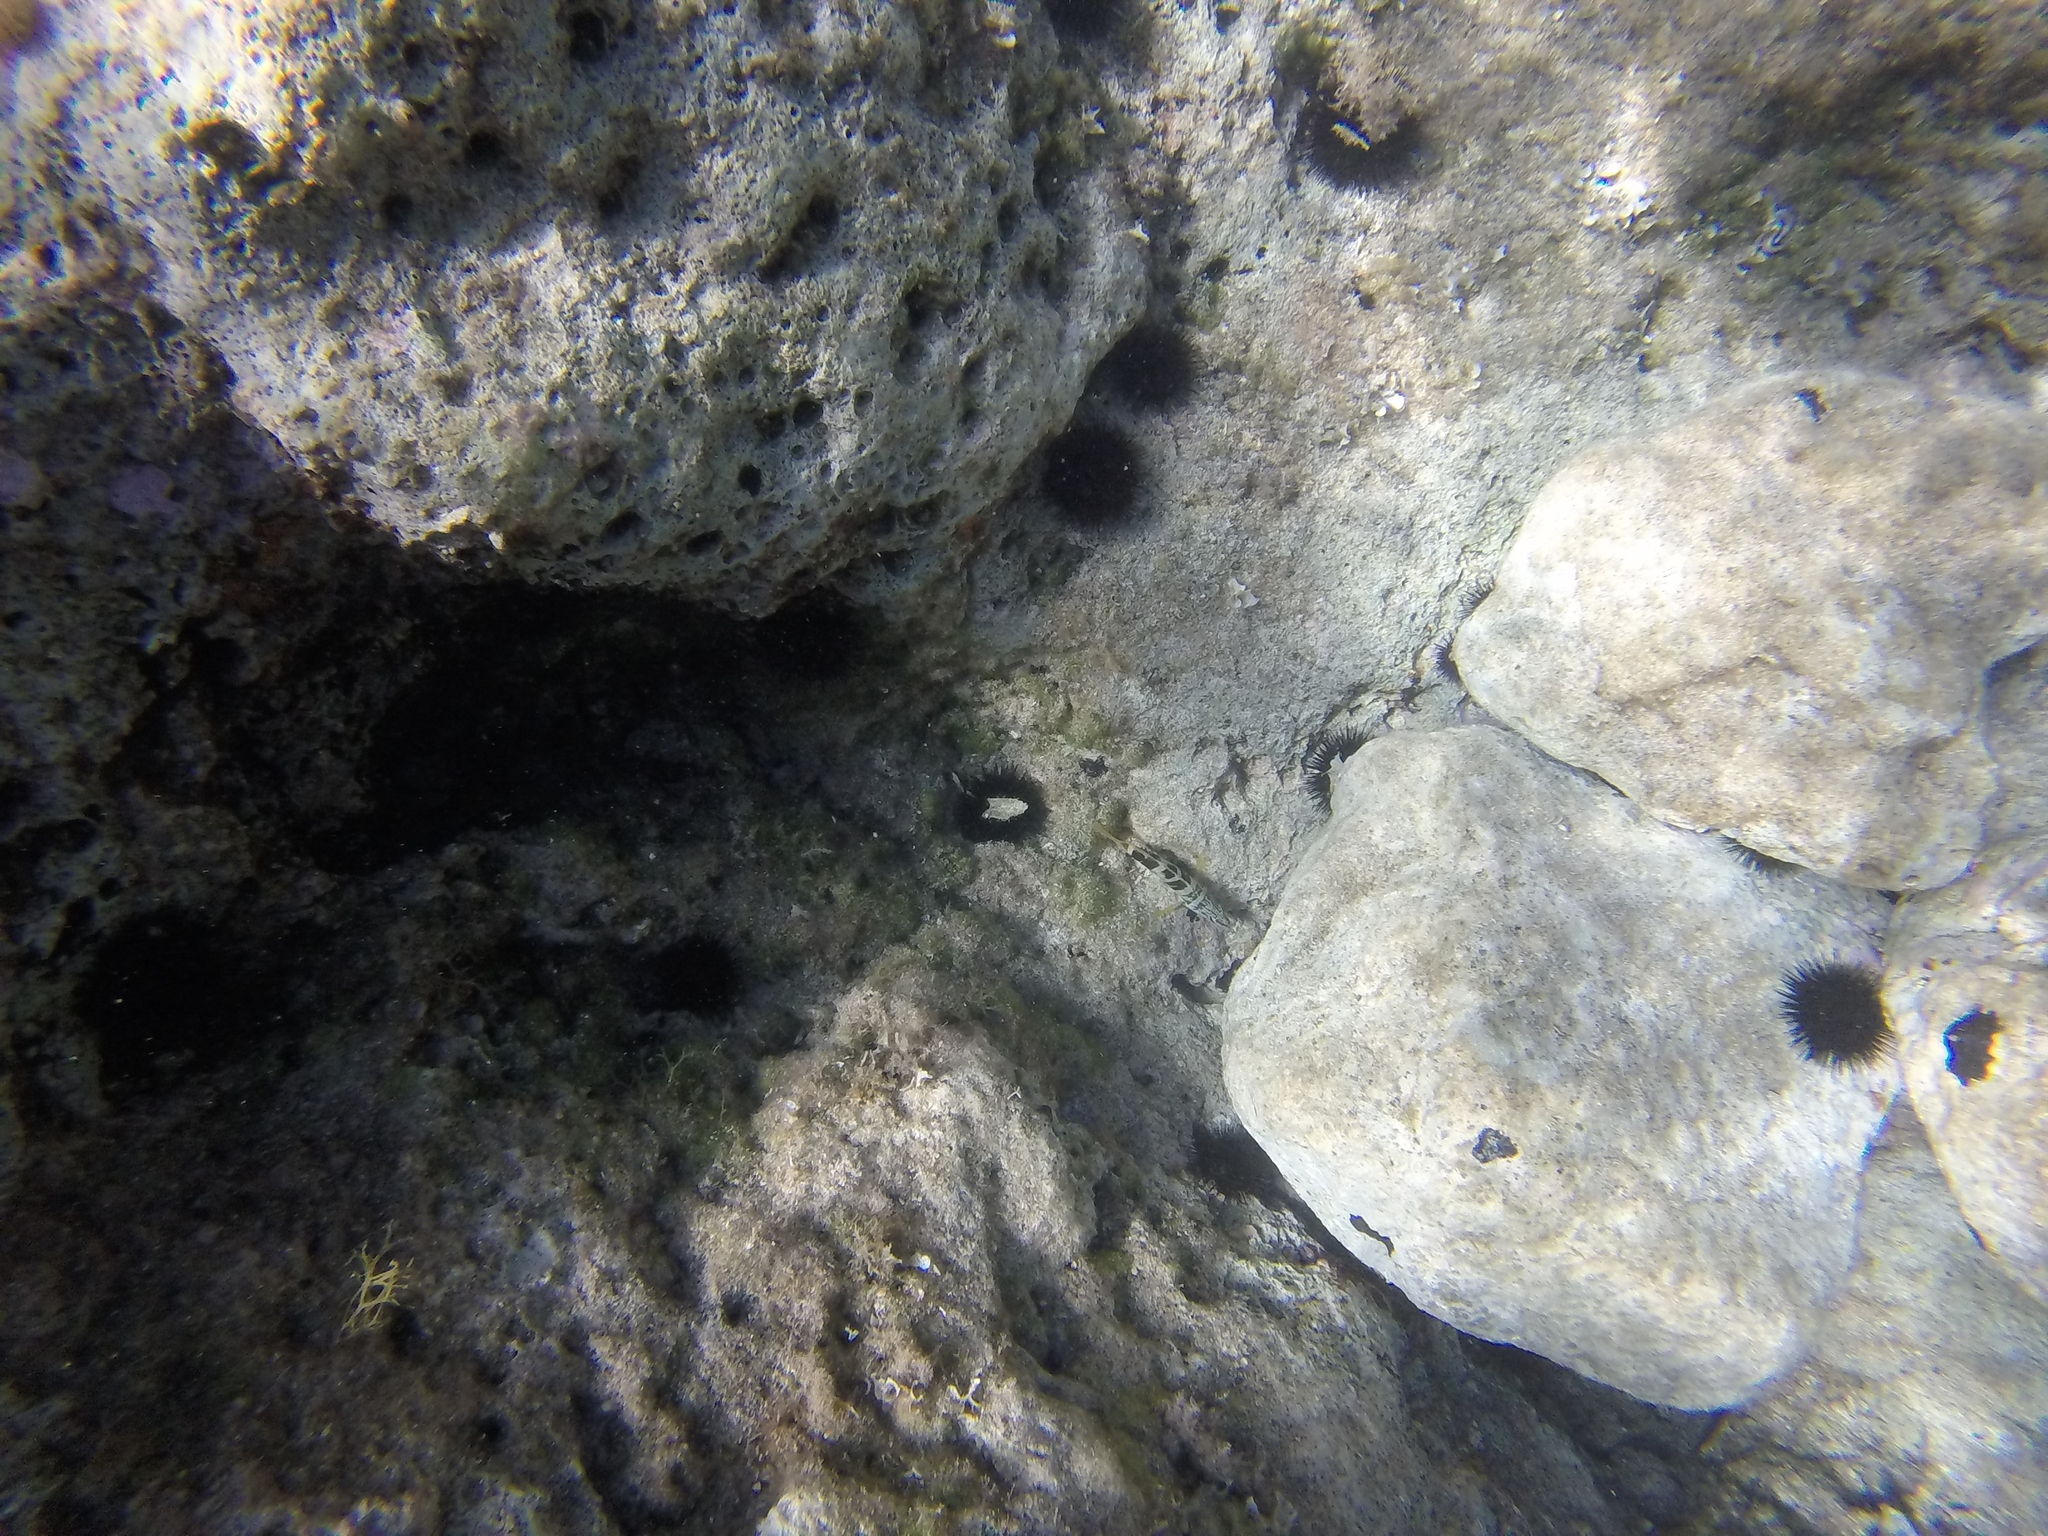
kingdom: Animalia
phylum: Chordata
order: Perciformes
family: Serranidae
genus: Serranus
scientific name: Serranus scriba
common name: Painted comber
